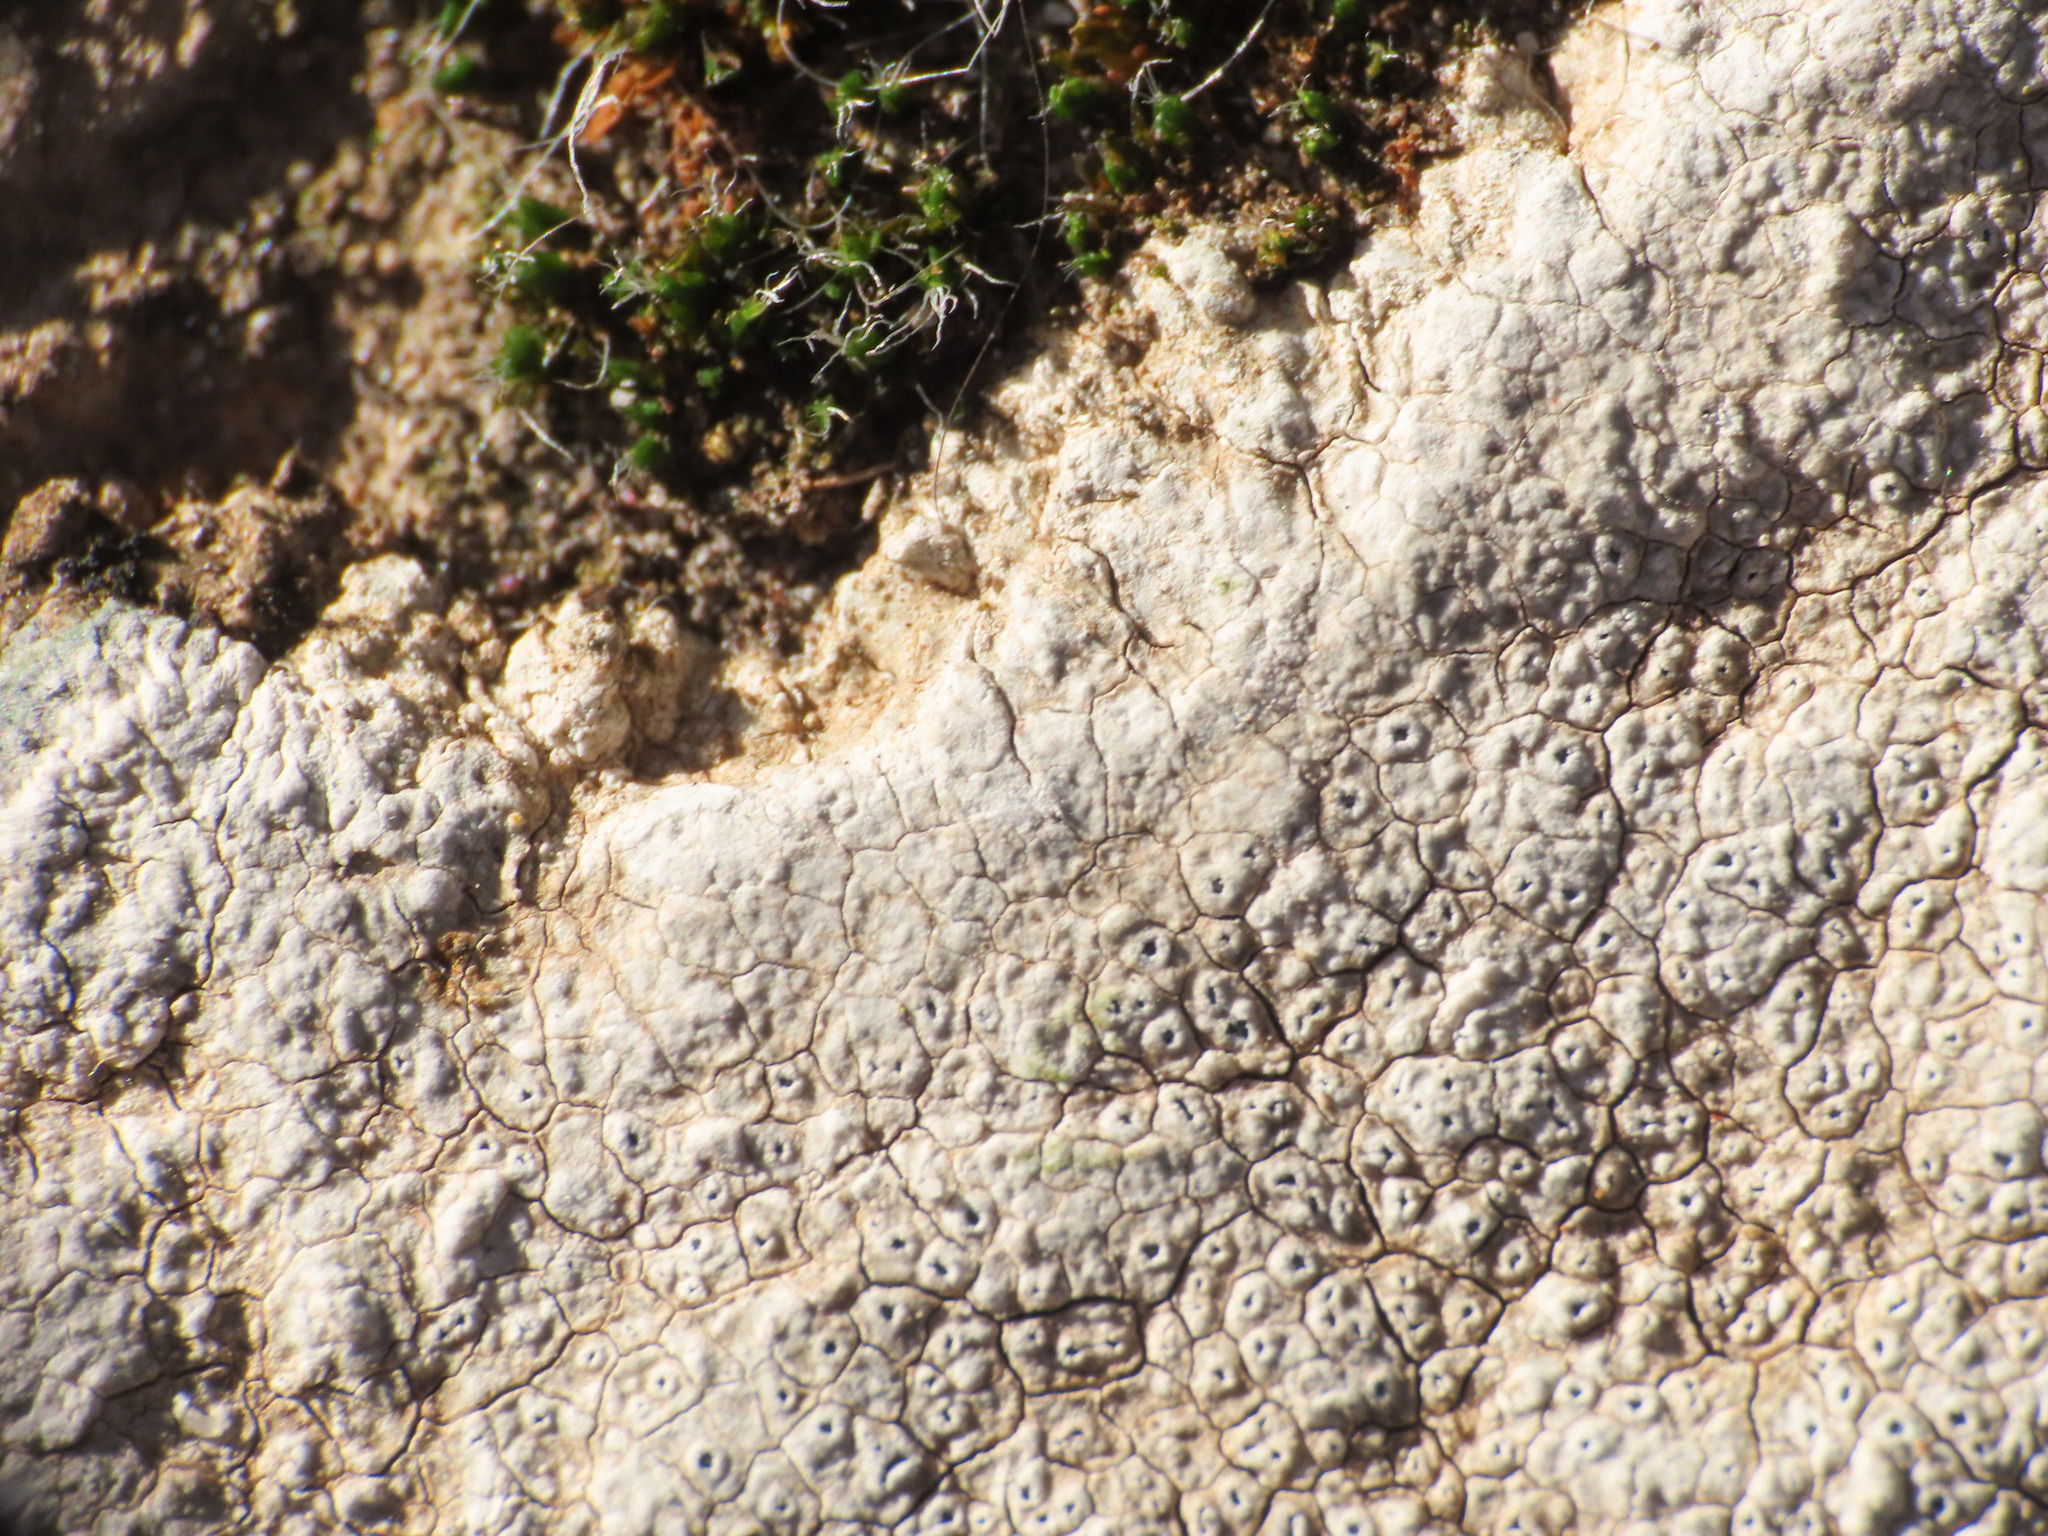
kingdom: Fungi
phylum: Ascomycota
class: Lecanoromycetes
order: Pertusariales
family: Megasporaceae
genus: Circinaria
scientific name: Circinaria calcarea
